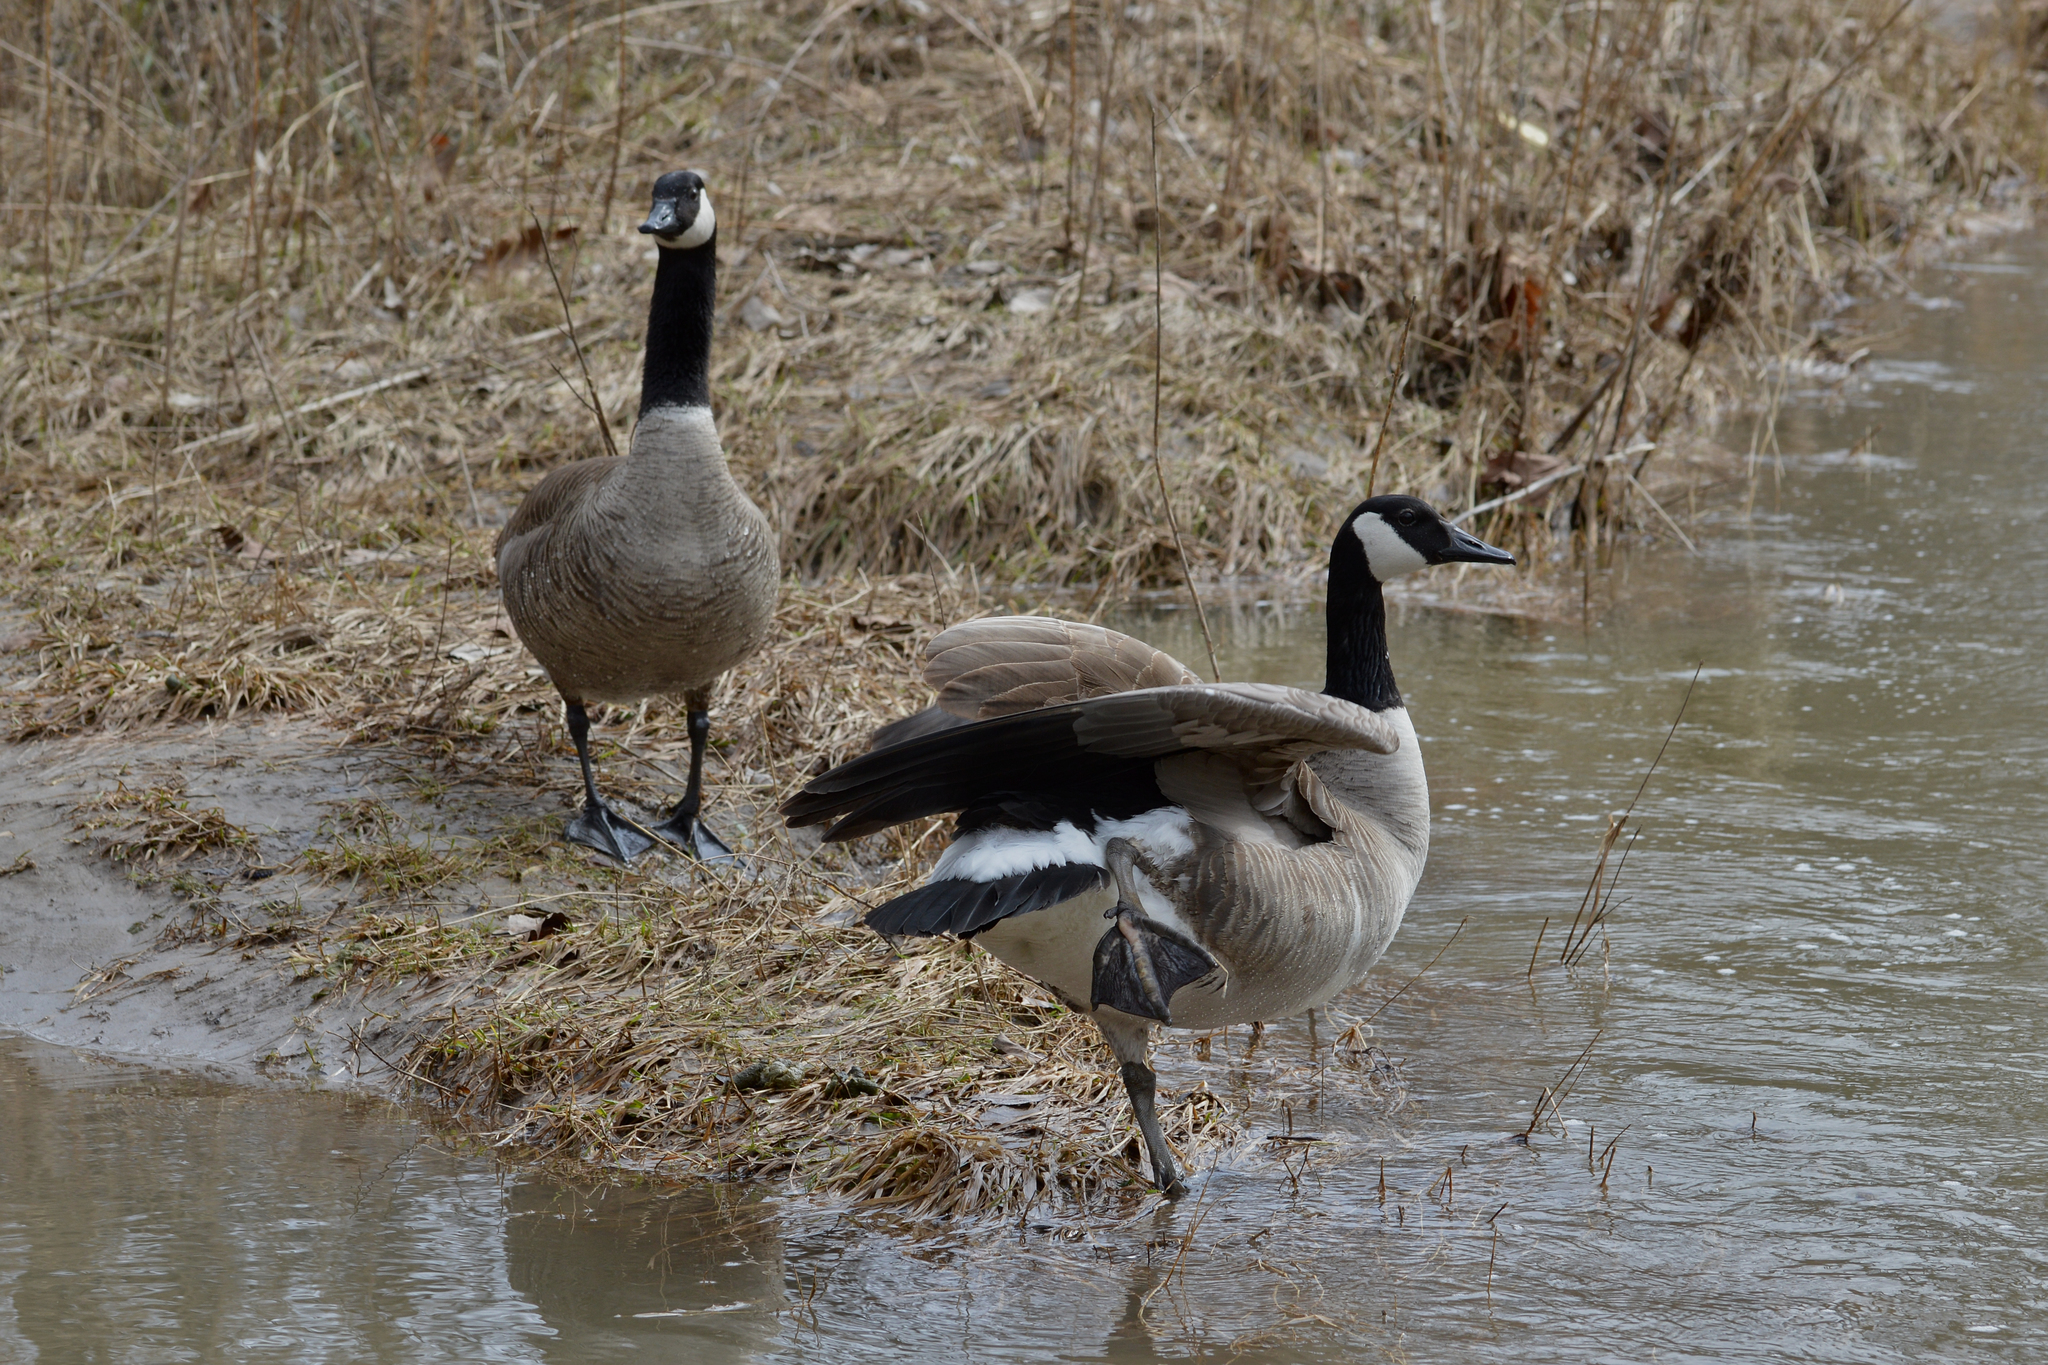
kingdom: Animalia
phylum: Chordata
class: Aves
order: Anseriformes
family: Anatidae
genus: Branta
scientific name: Branta canadensis
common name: Canada goose
